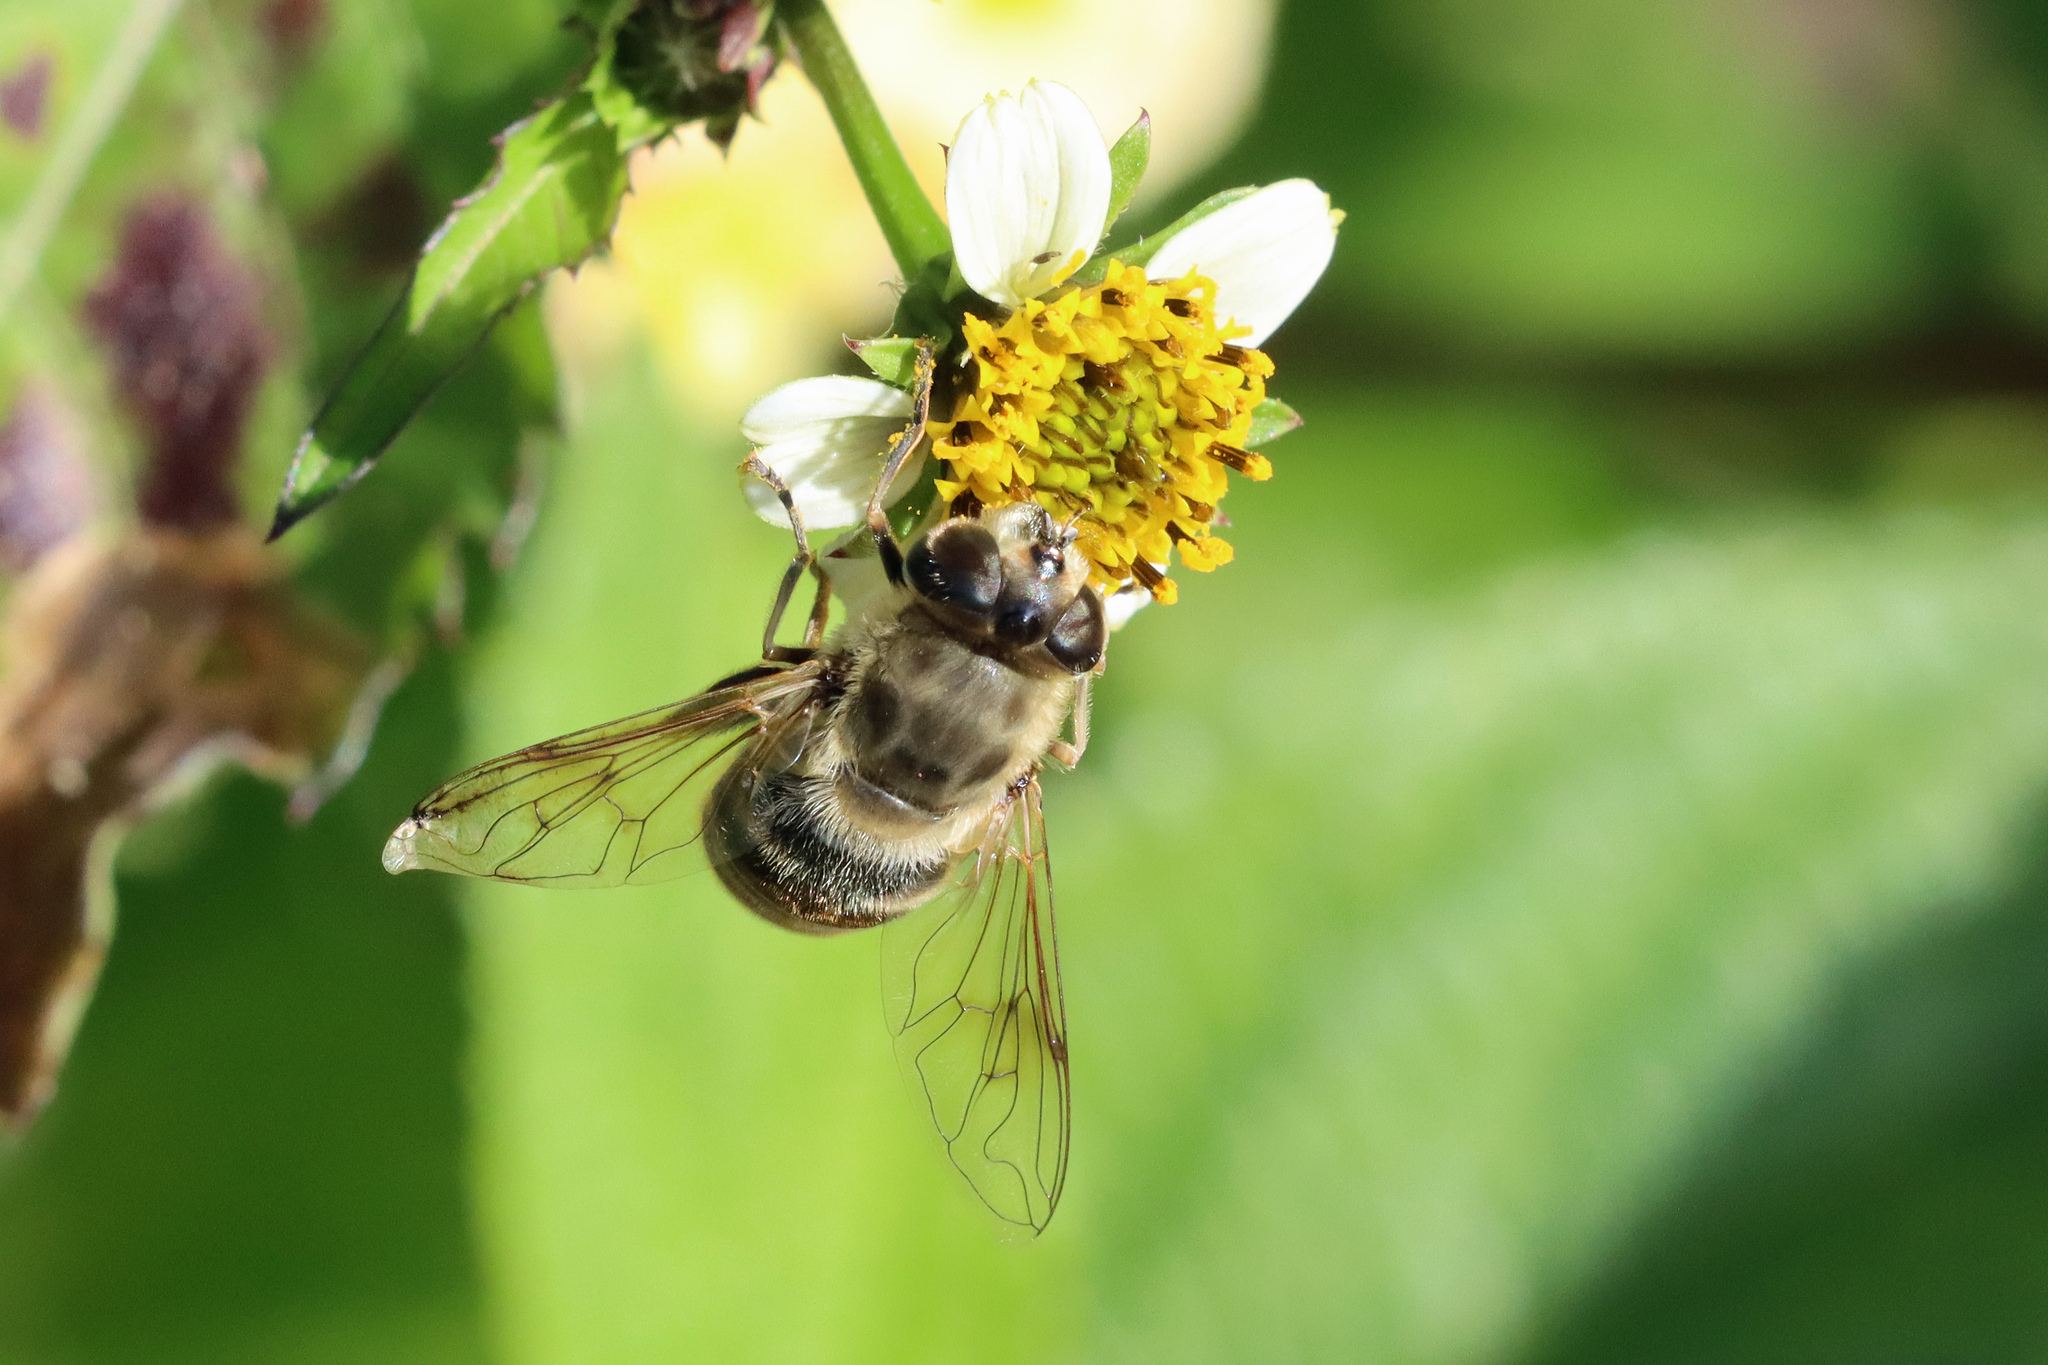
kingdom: Animalia
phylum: Arthropoda
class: Insecta
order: Diptera
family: Syrphidae
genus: Eristalis
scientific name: Eristalis tenax
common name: Drone fly
